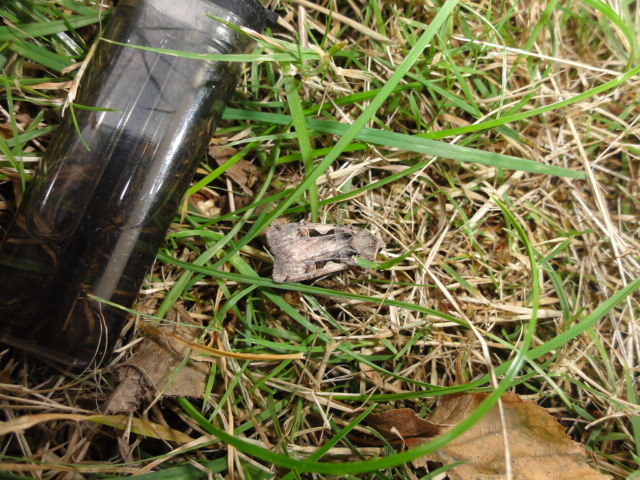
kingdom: Animalia
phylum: Arthropoda
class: Insecta
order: Lepidoptera
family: Noctuidae
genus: Xestia
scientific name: Xestia c-nigrum
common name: Setaceous hebrew character
